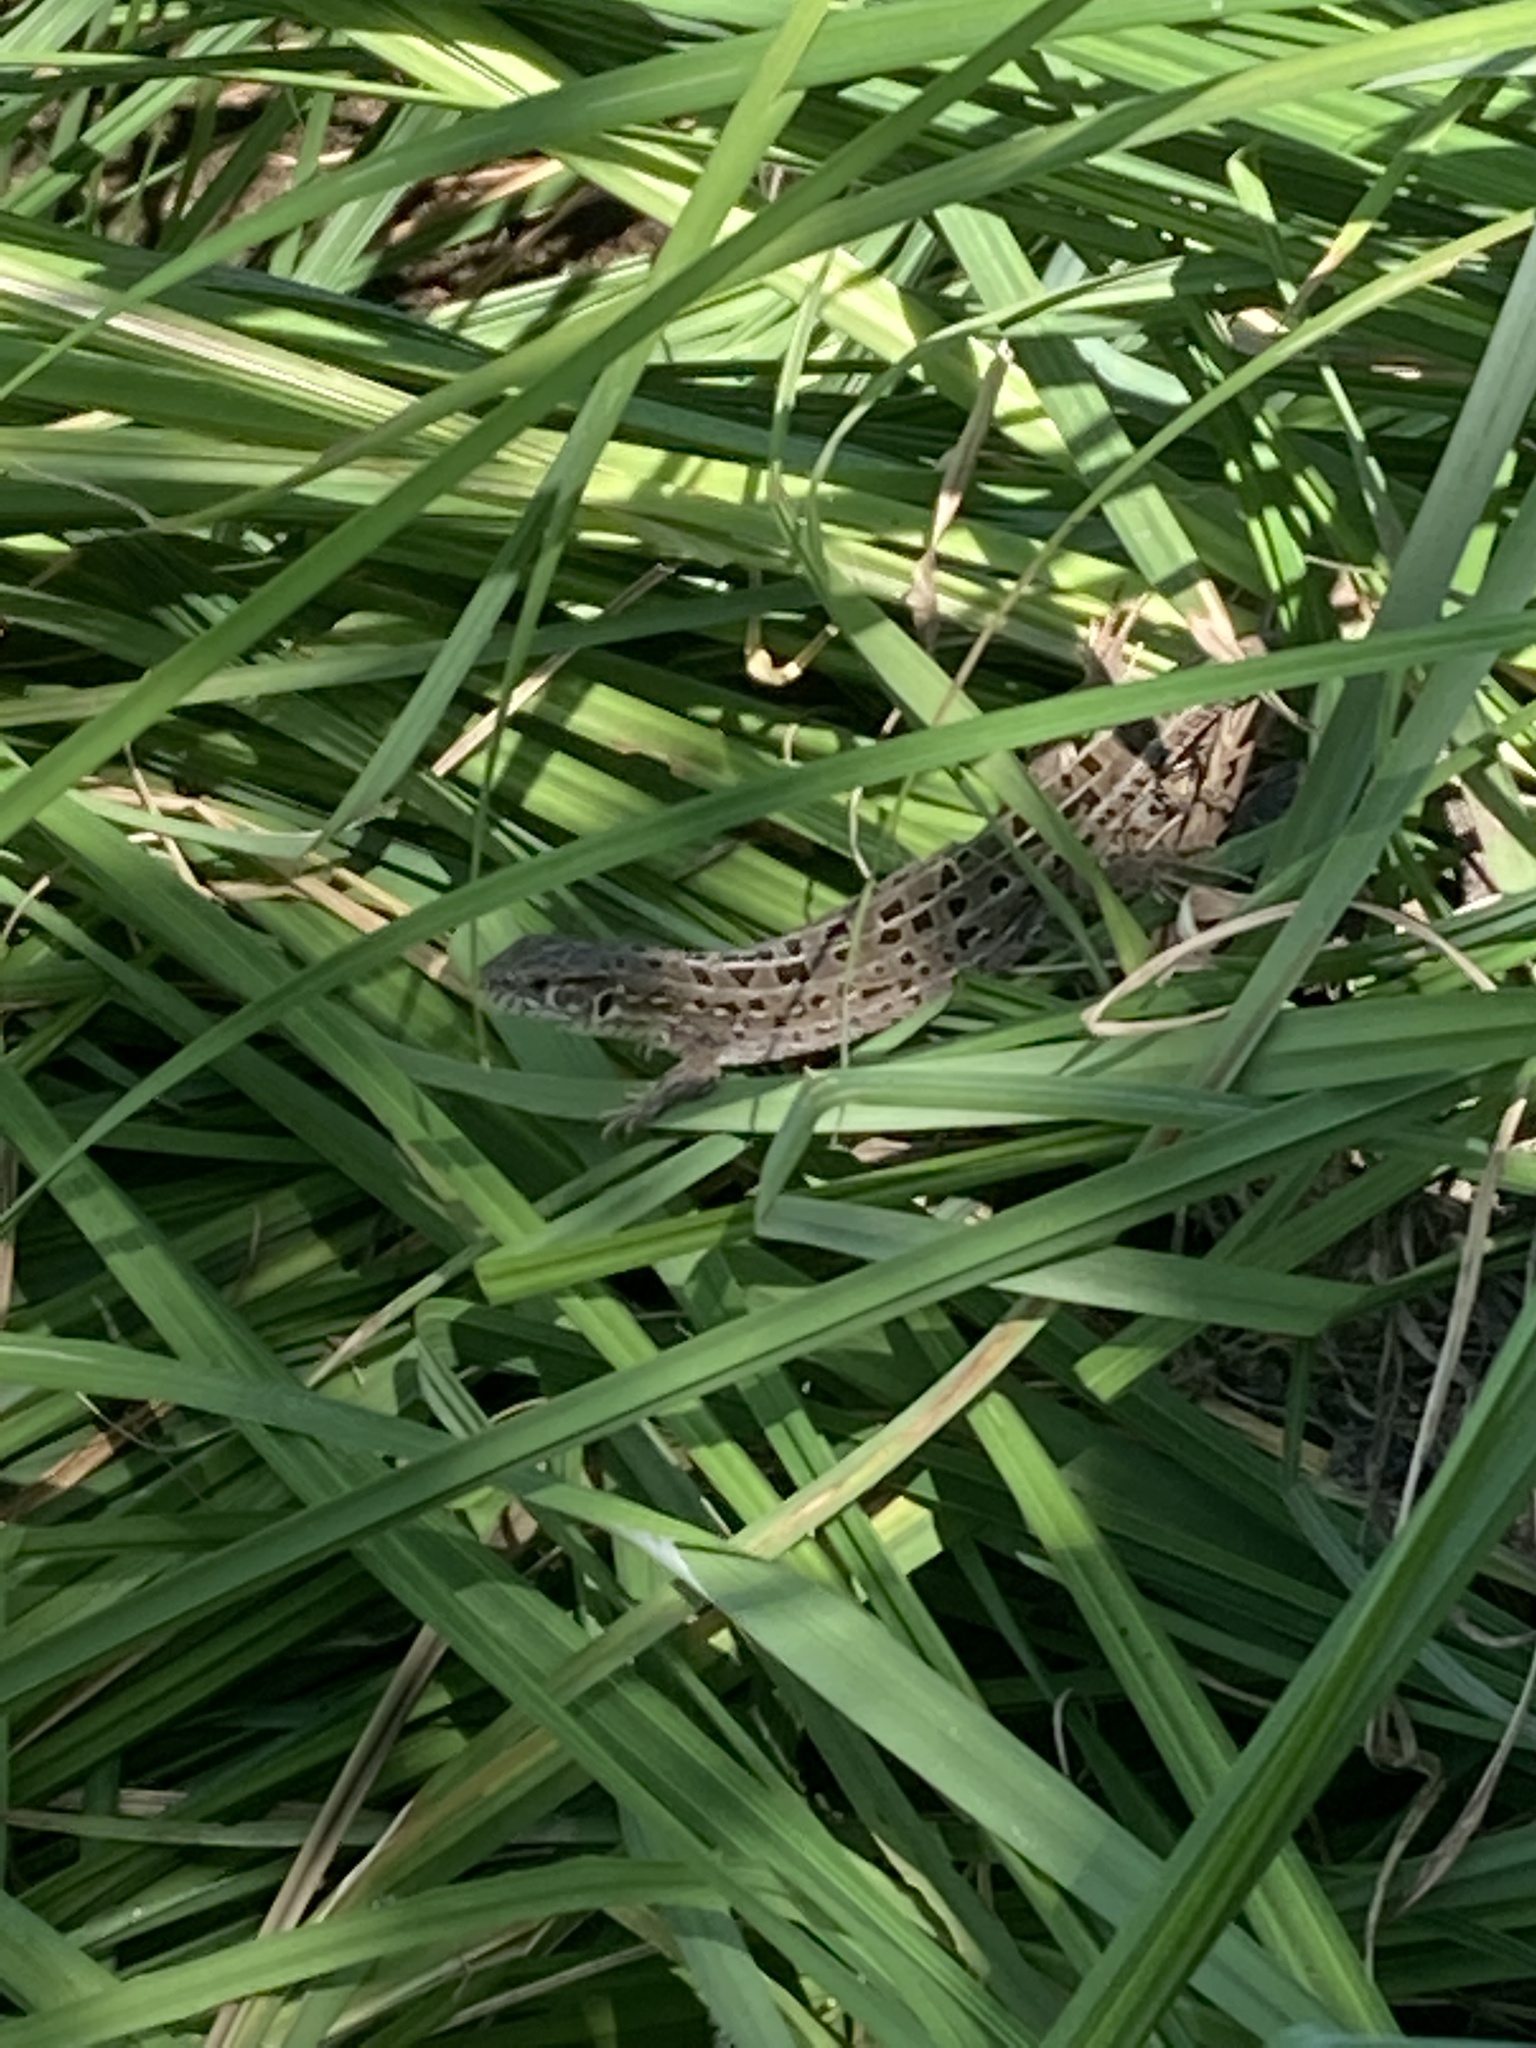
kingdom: Animalia
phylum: Chordata
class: Squamata
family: Lacertidae
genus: Lacerta
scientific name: Lacerta agilis
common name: Sand lizard
